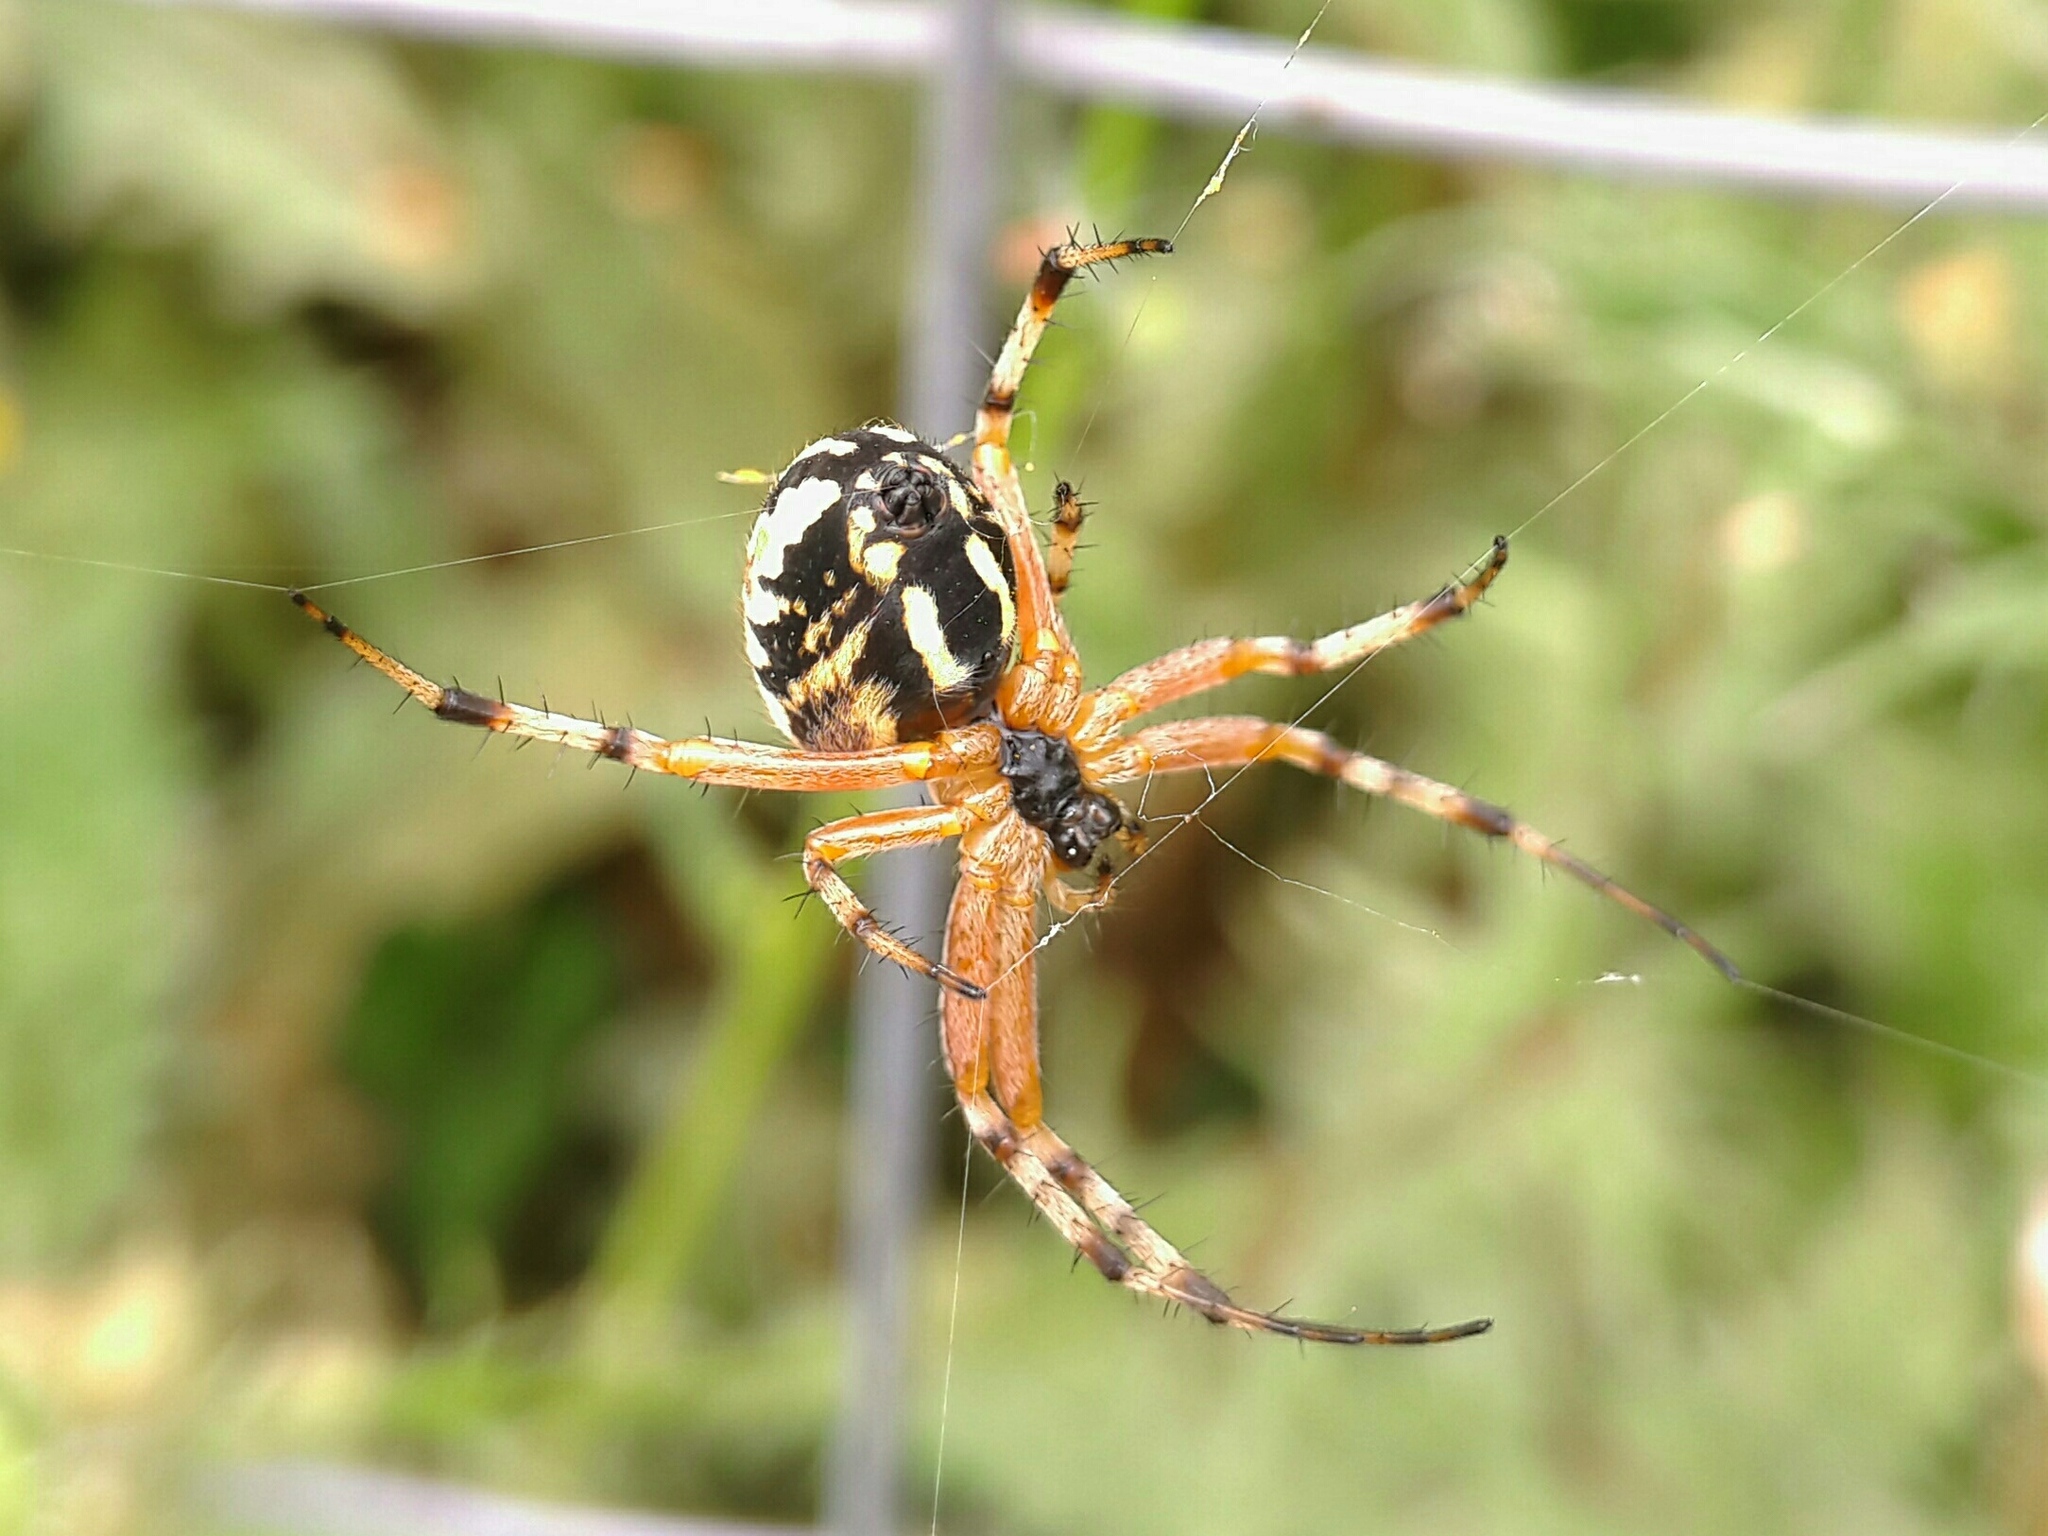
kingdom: Animalia
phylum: Arthropoda
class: Arachnida
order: Araneae
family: Araneidae
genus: Neoscona
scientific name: Neoscona adianta
